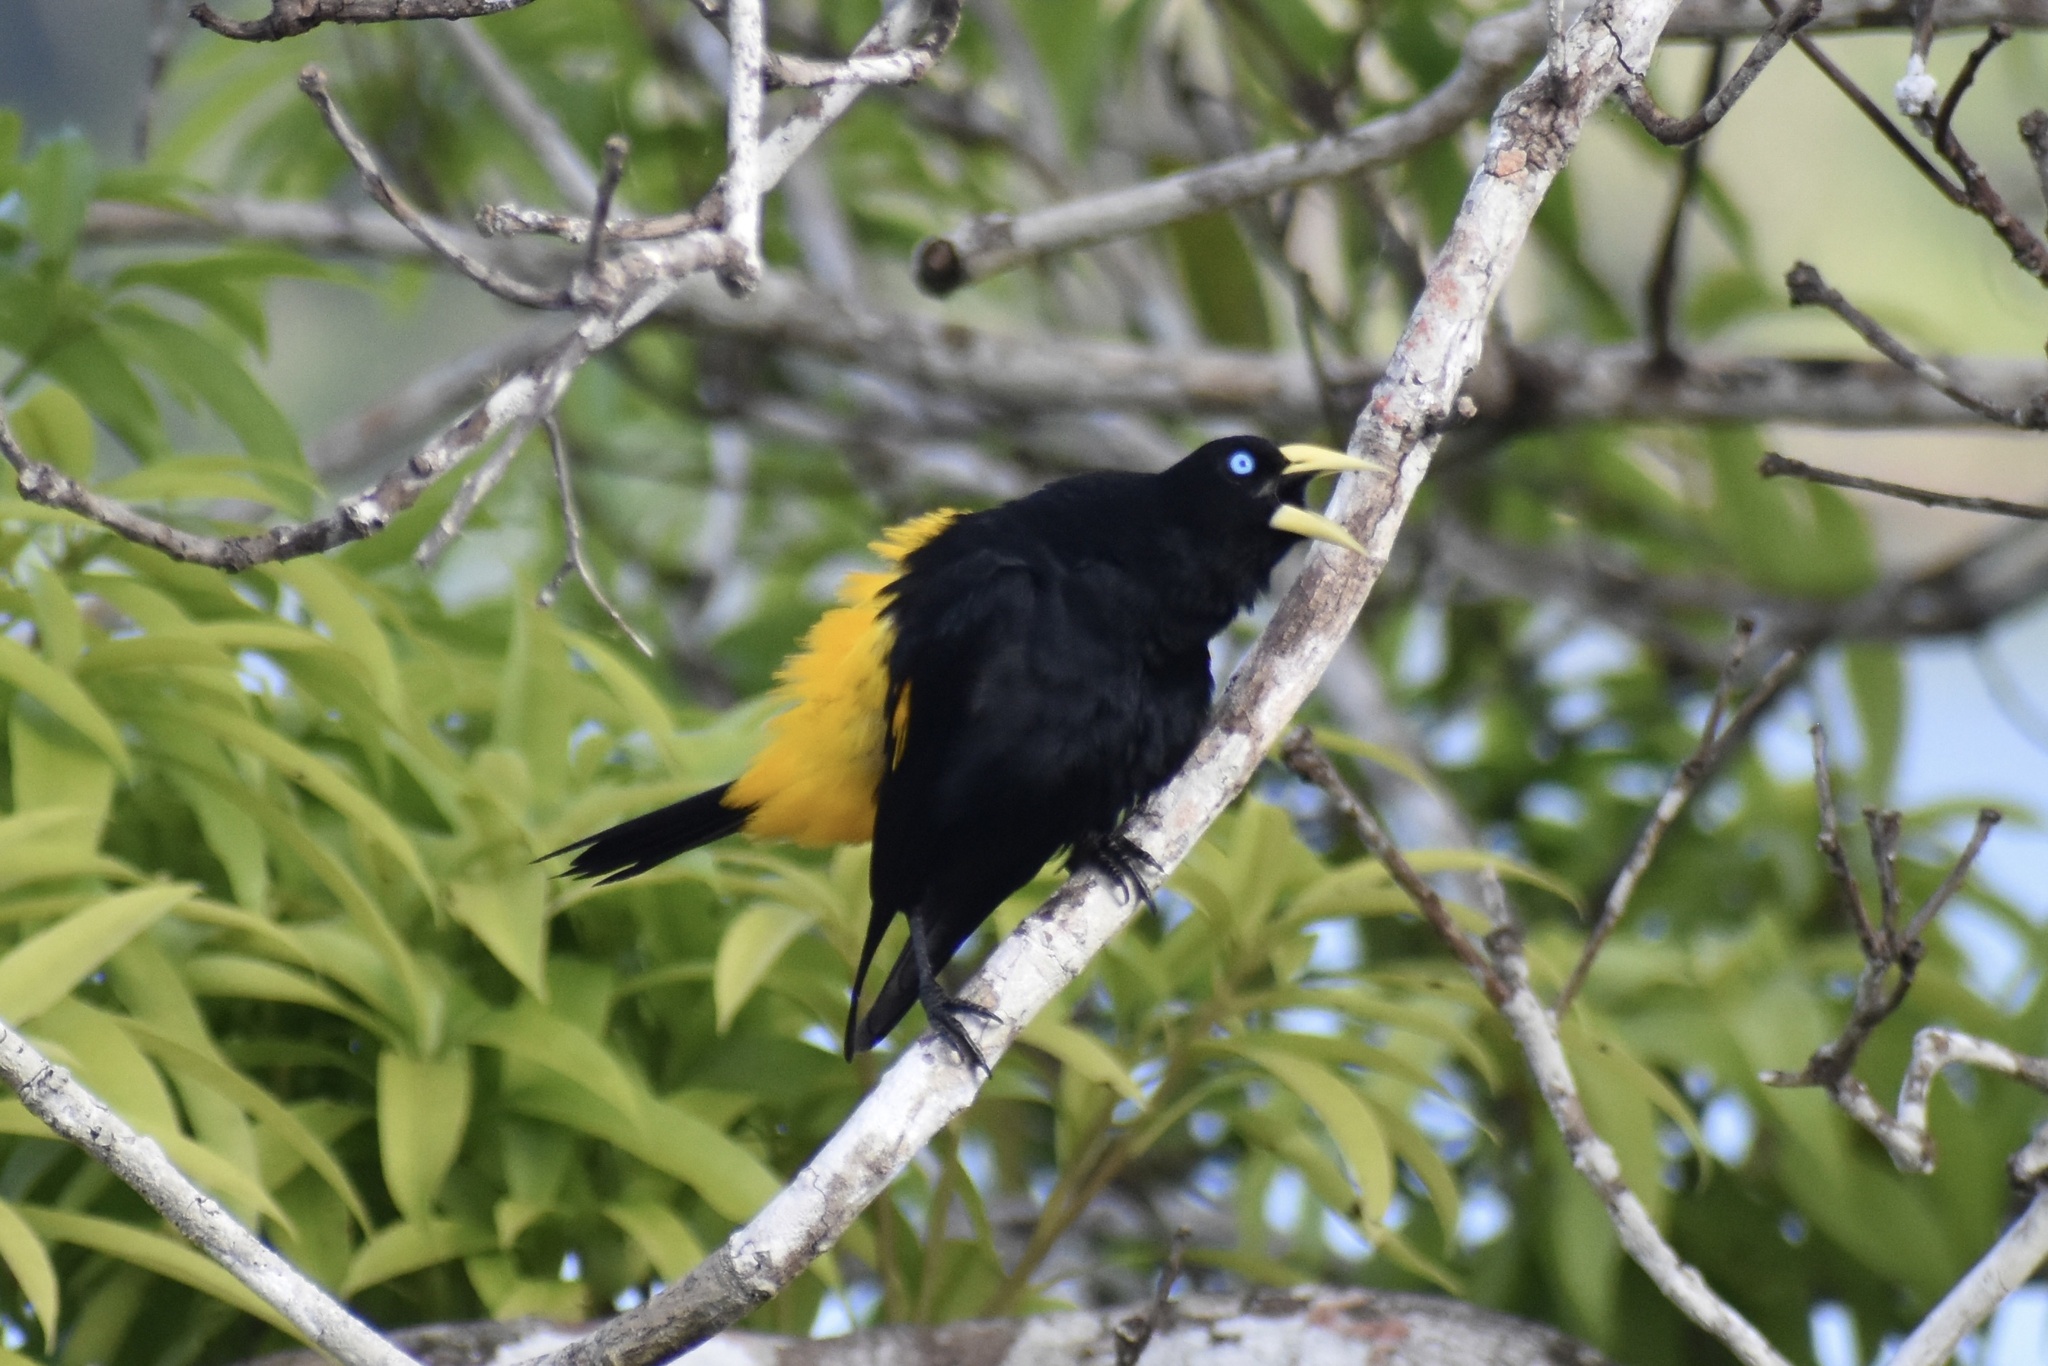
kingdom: Animalia
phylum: Chordata
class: Aves
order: Passeriformes
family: Icteridae
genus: Cacicus
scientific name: Cacicus cela
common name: Yellow-rumped cacique
